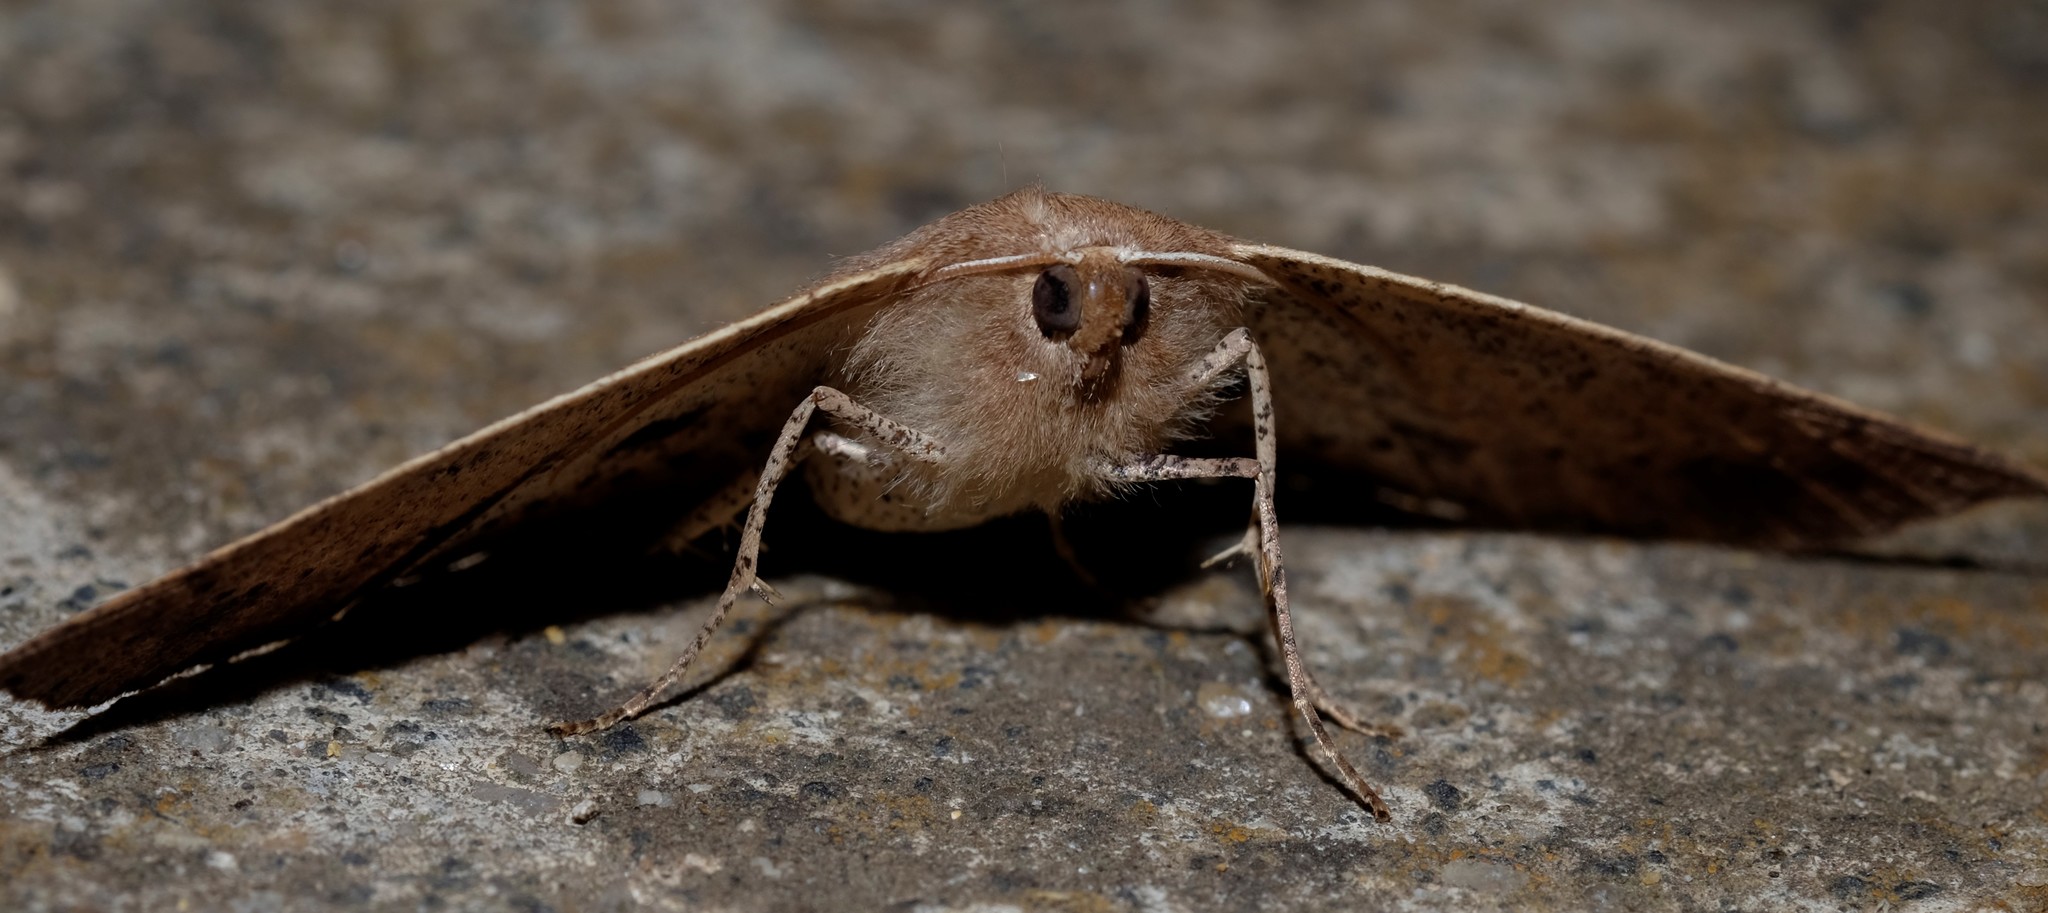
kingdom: Animalia
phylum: Arthropoda
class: Insecta
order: Lepidoptera
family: Geometridae
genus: Idiodes
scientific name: Idiodes siculoides
